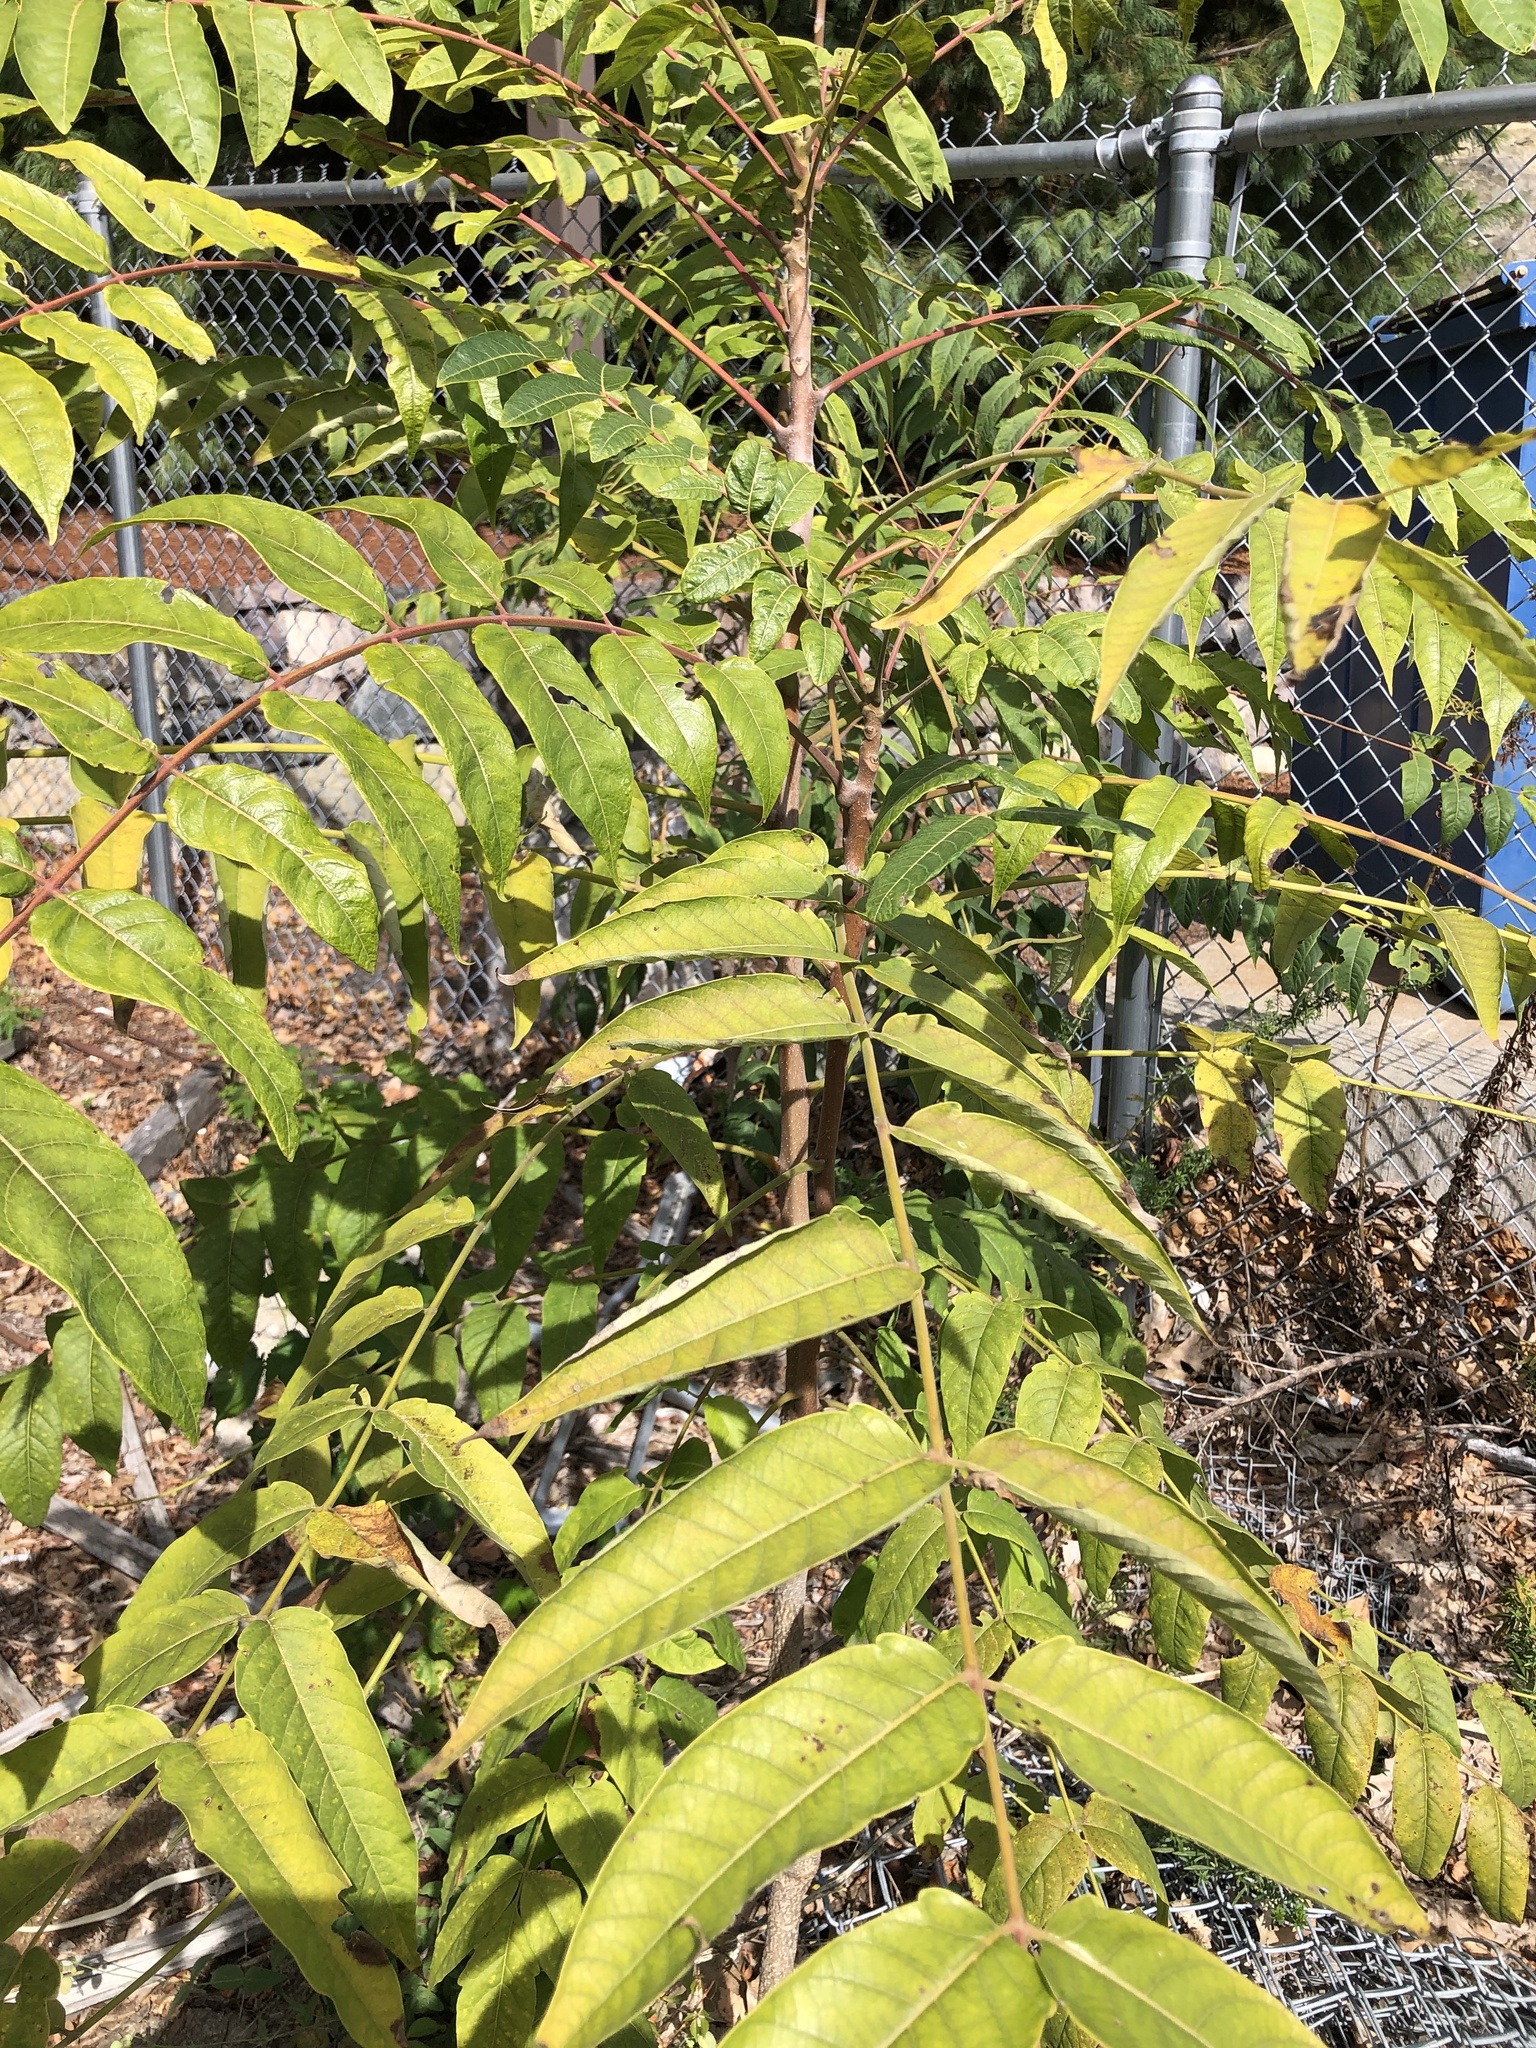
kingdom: Plantae
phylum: Tracheophyta
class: Magnoliopsida
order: Sapindales
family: Simaroubaceae
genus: Ailanthus
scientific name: Ailanthus altissima
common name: Tree-of-heaven
